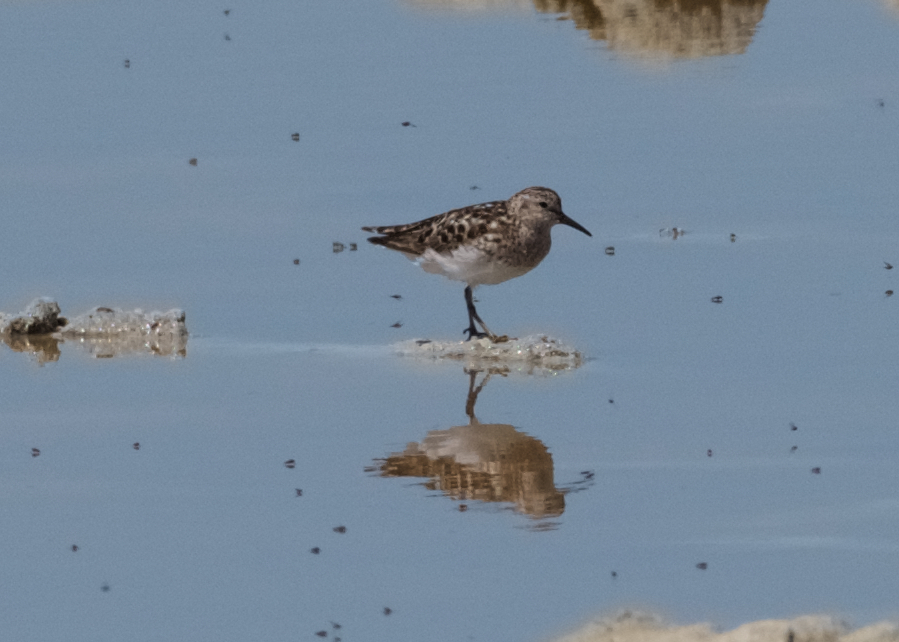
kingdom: Animalia
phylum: Chordata
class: Aves
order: Charadriiformes
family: Scolopacidae
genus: Calidris
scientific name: Calidris minutilla
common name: Least sandpiper
